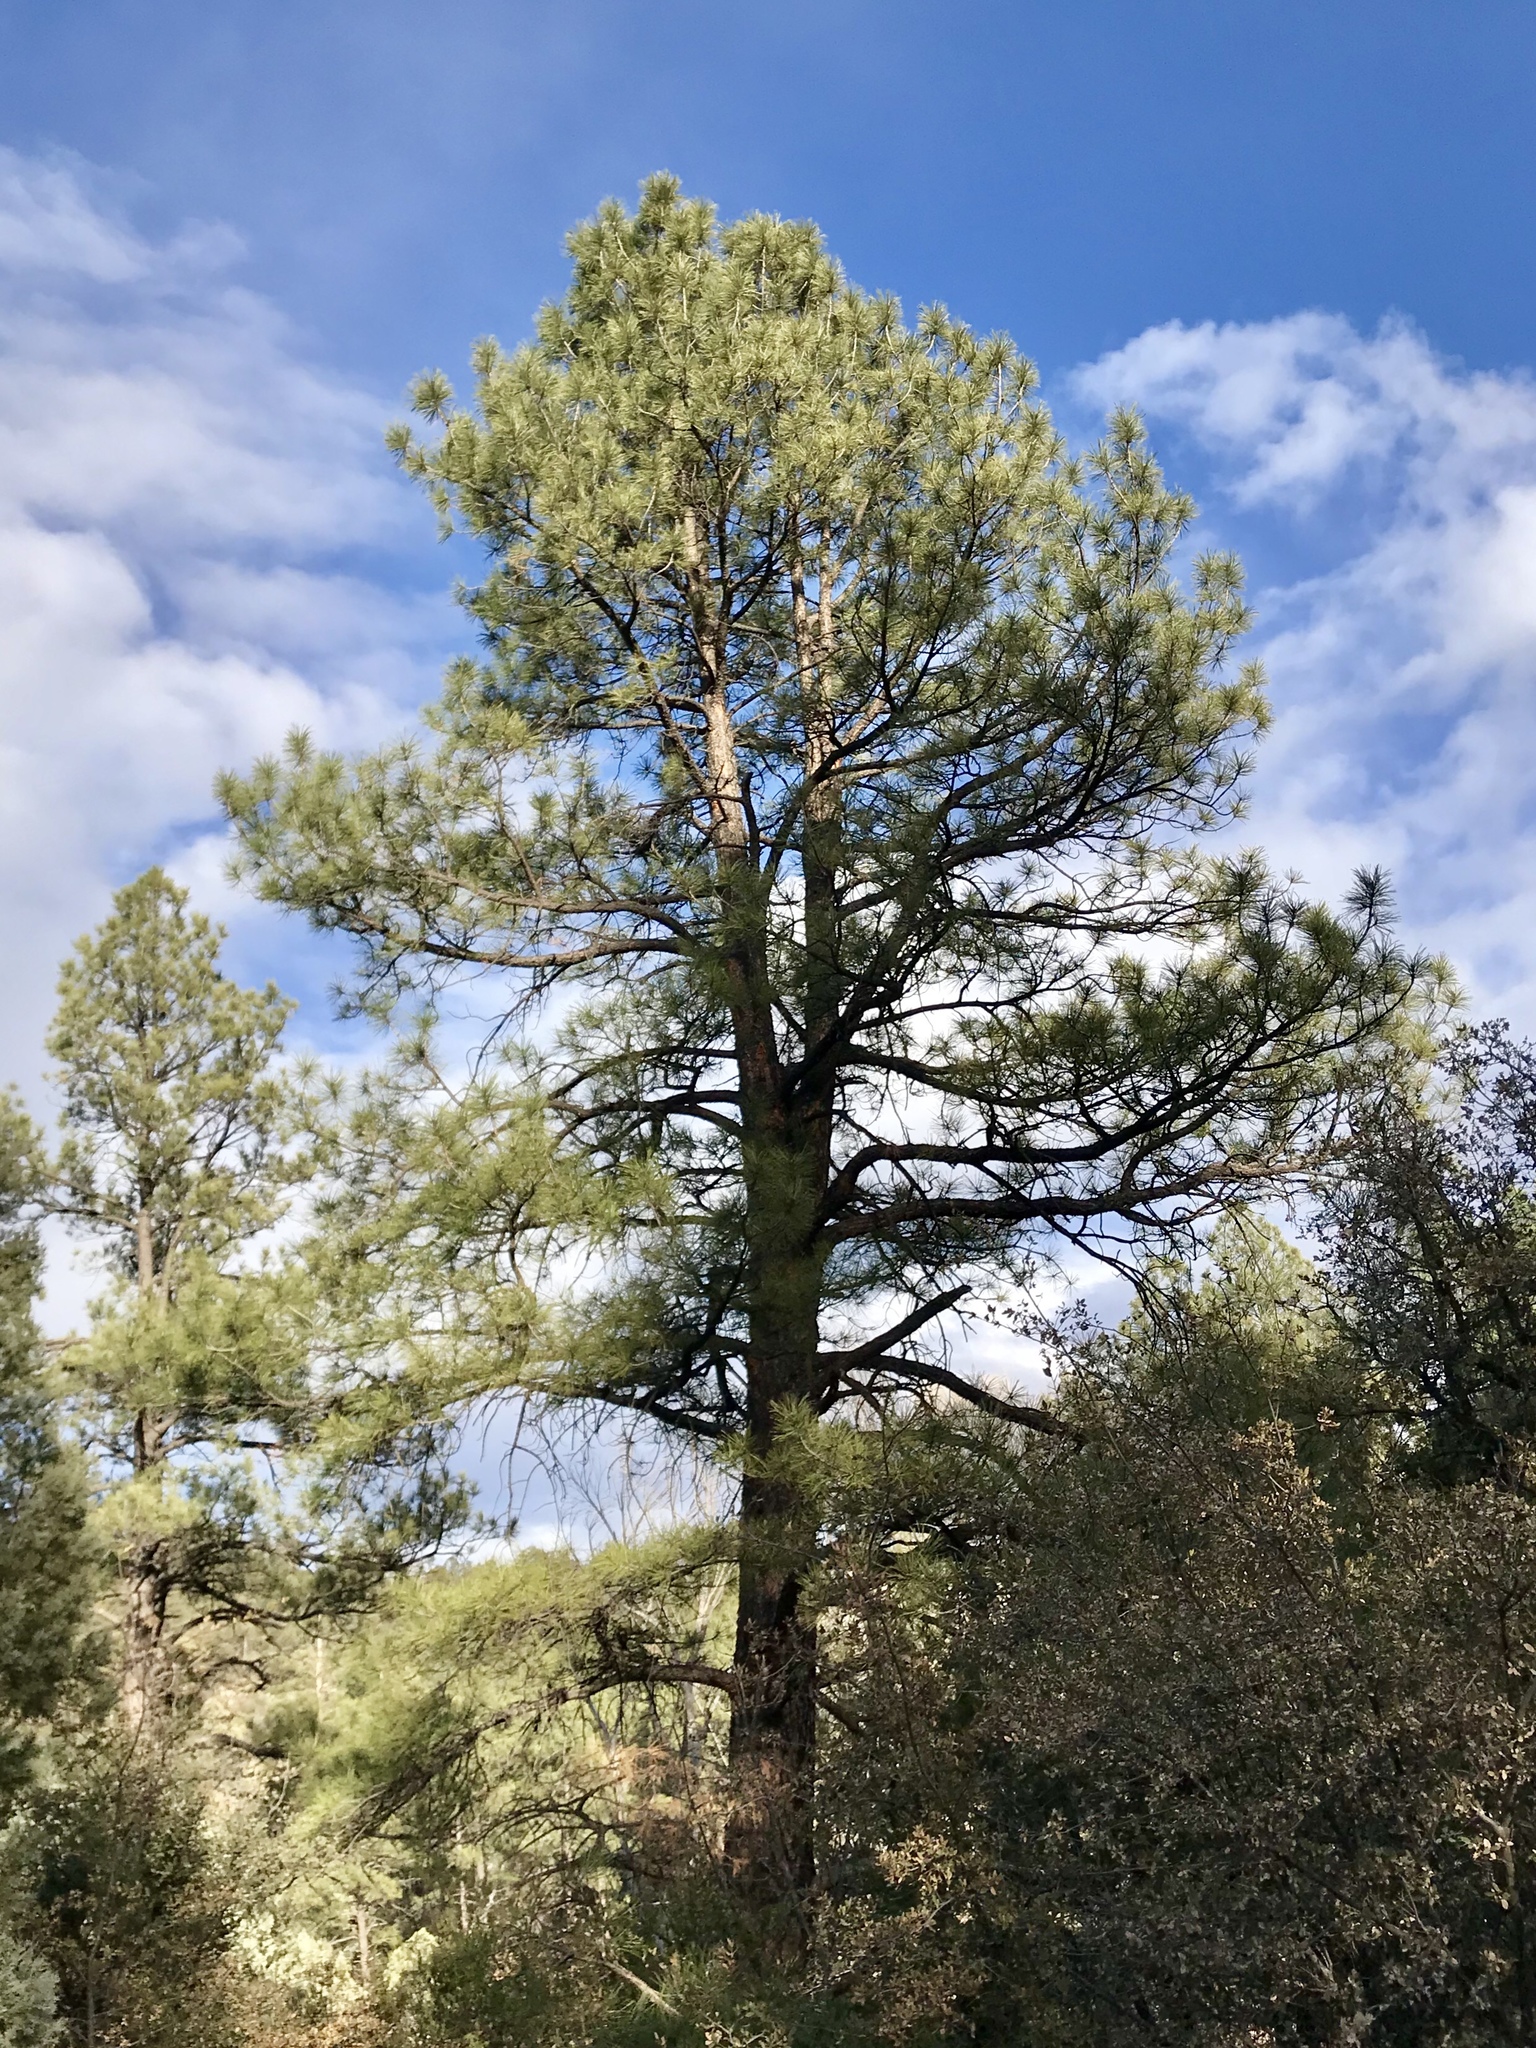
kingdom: Plantae
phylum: Tracheophyta
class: Pinopsida
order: Pinales
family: Pinaceae
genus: Pinus
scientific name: Pinus ponderosa
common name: Western yellow-pine
